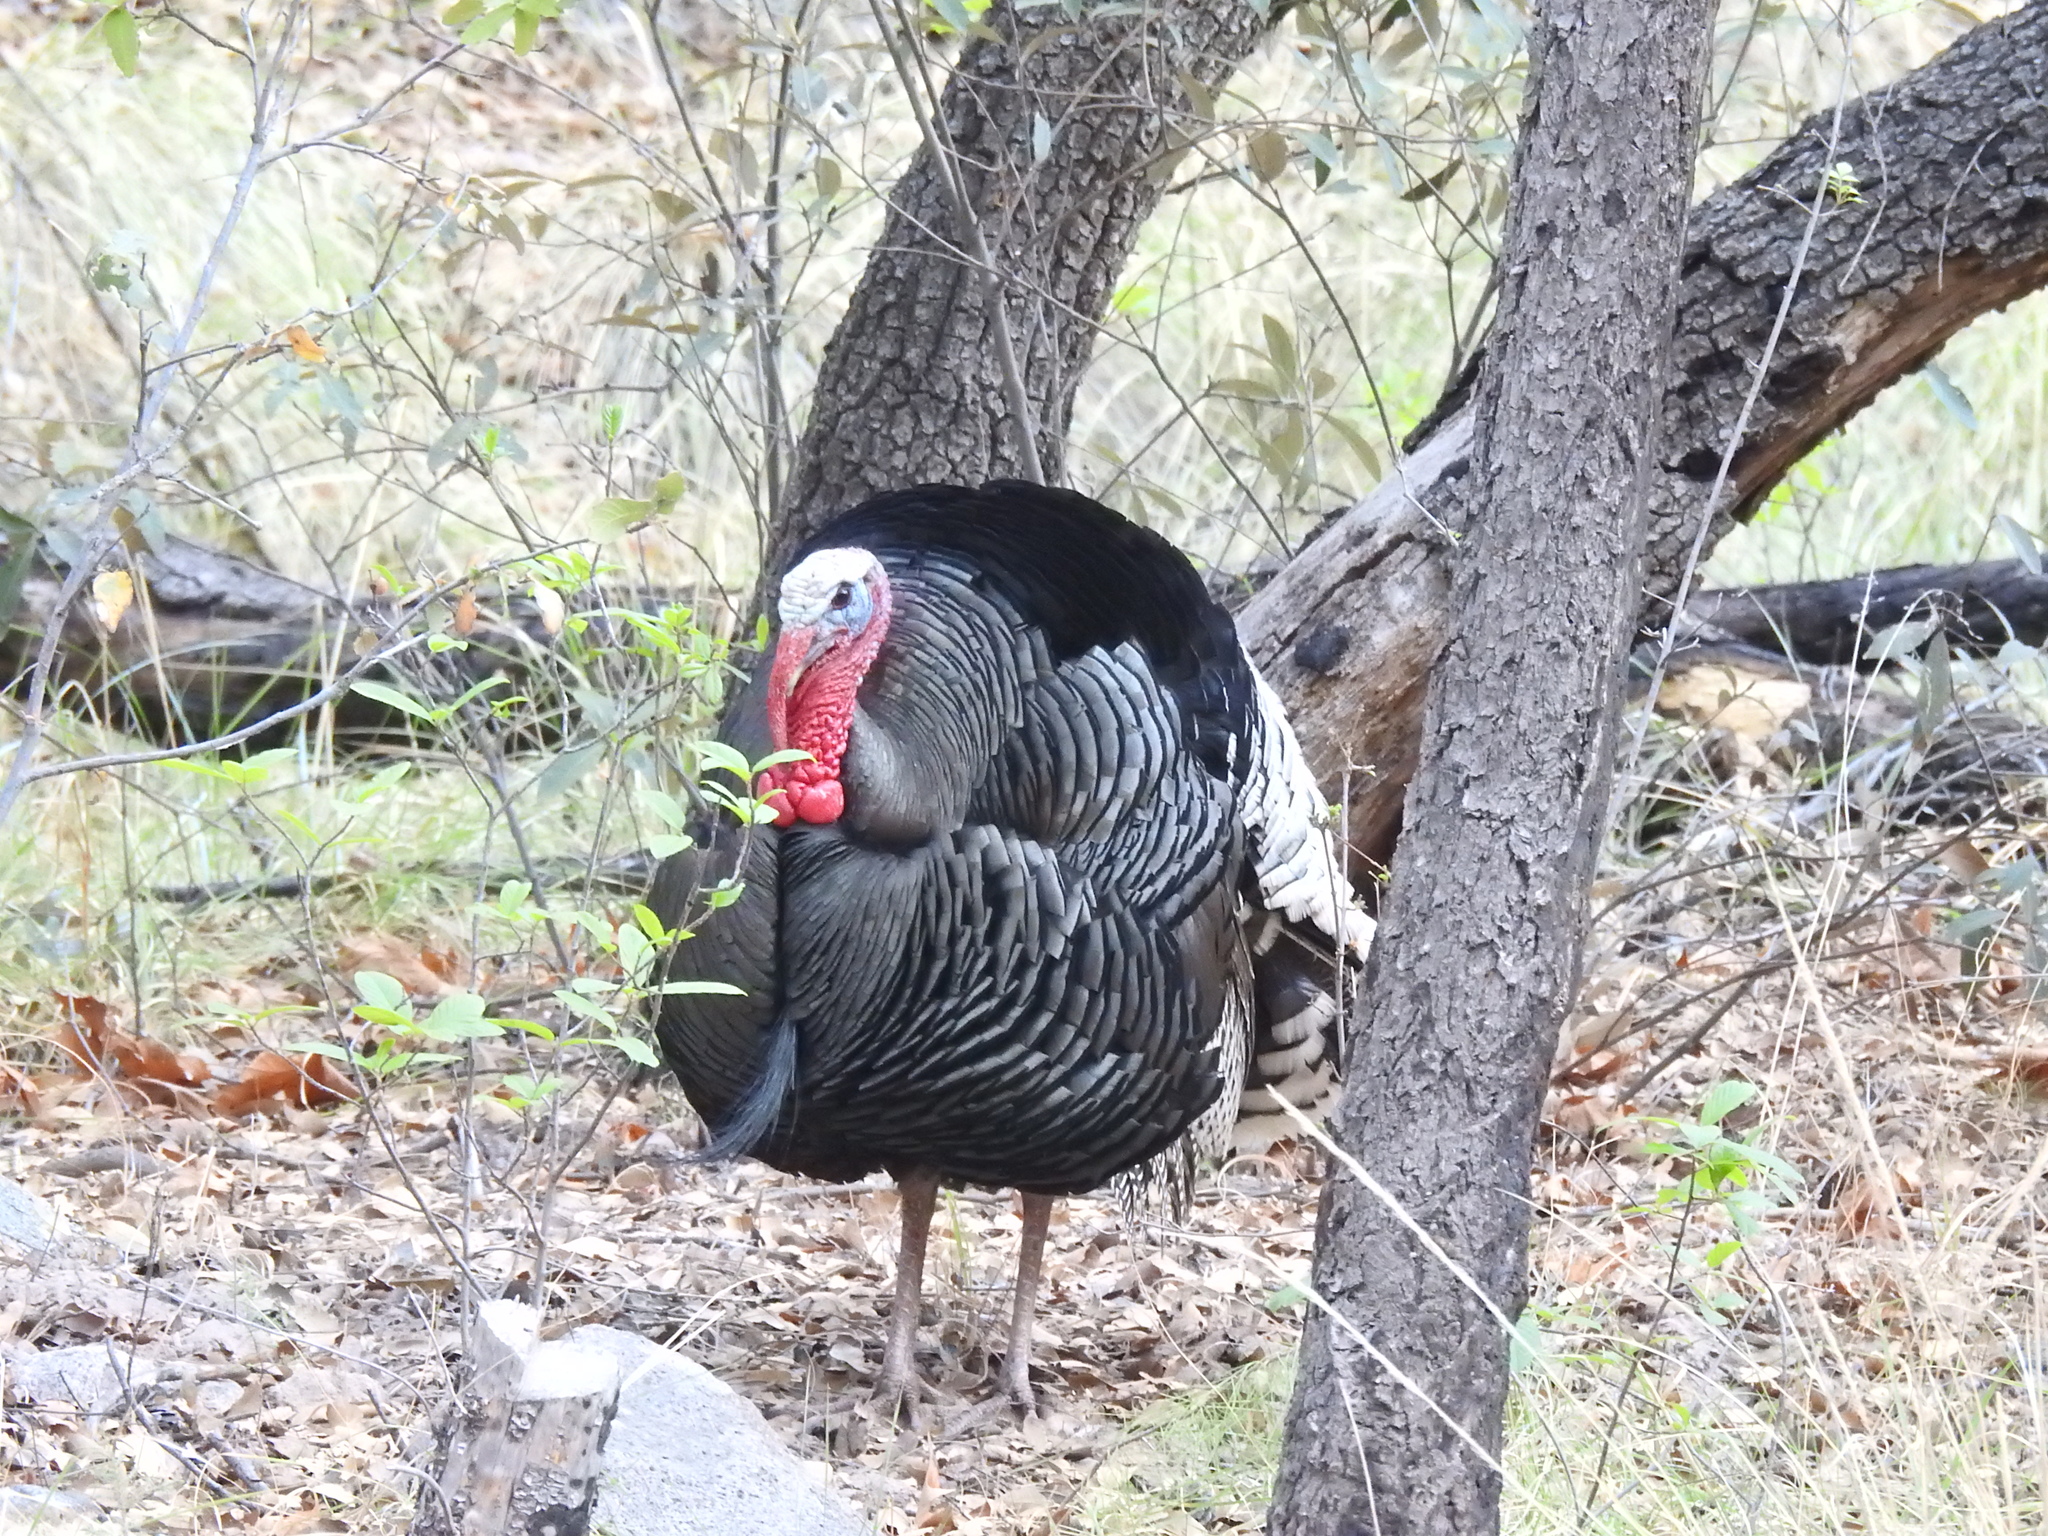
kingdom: Animalia
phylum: Chordata
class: Aves
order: Galliformes
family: Phasianidae
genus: Meleagris
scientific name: Meleagris gallopavo
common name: Wild turkey
